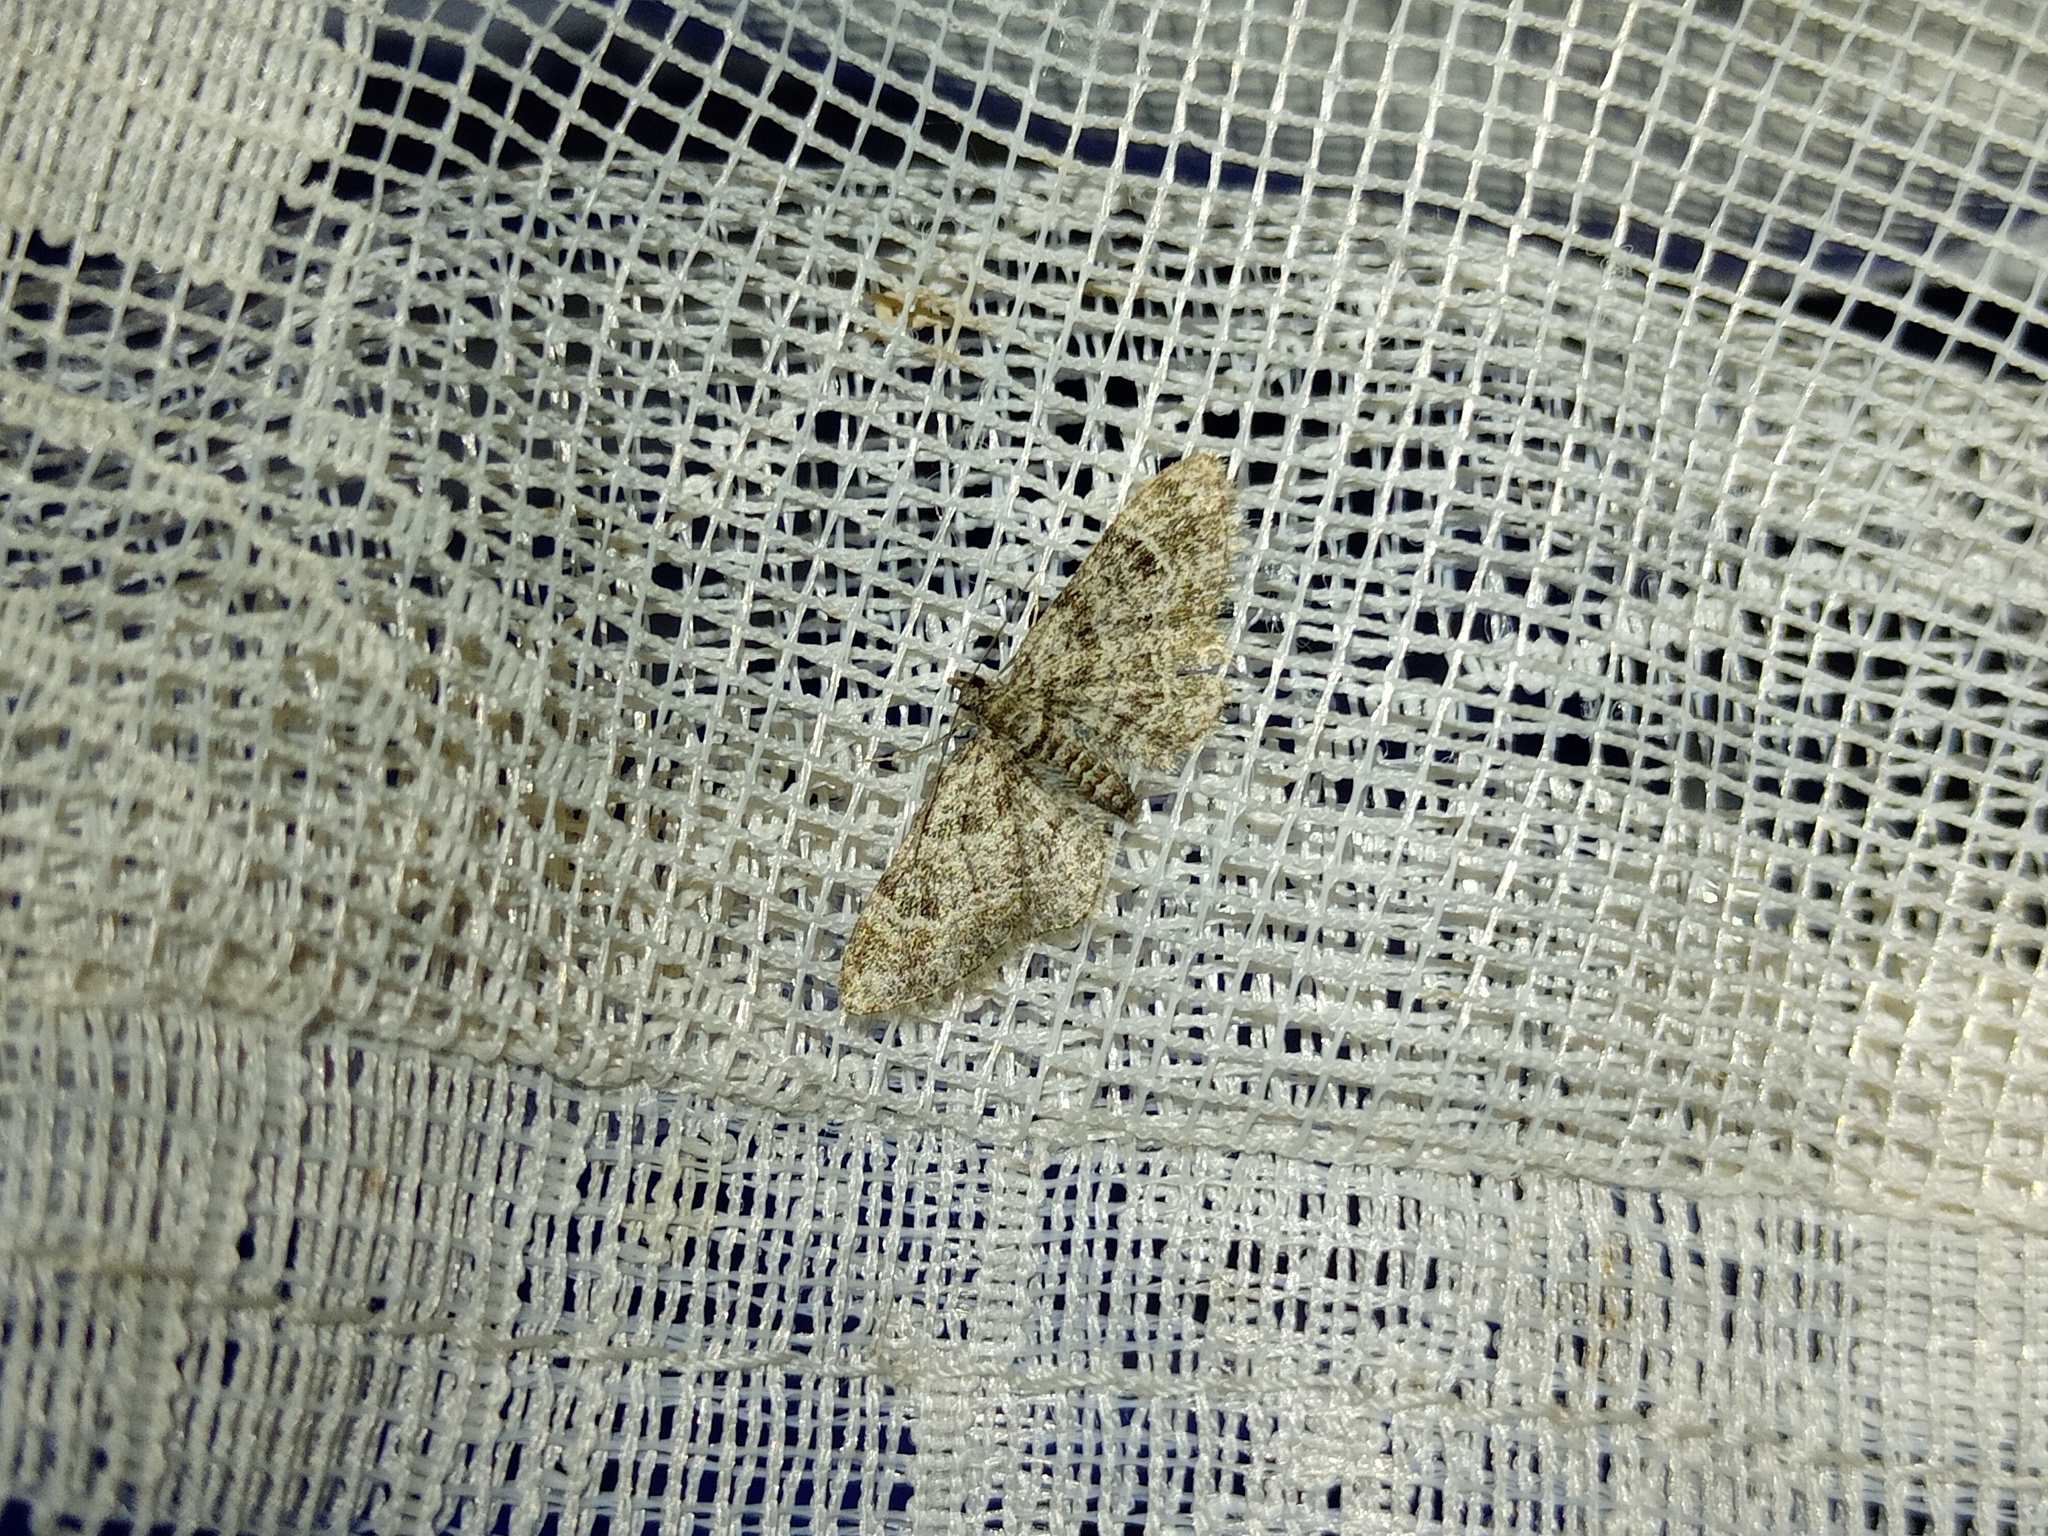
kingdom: Animalia
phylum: Arthropoda
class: Insecta
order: Lepidoptera
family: Geometridae
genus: Gymnoscelis
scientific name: Gymnoscelis rufifasciata
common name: Double-striped pug
